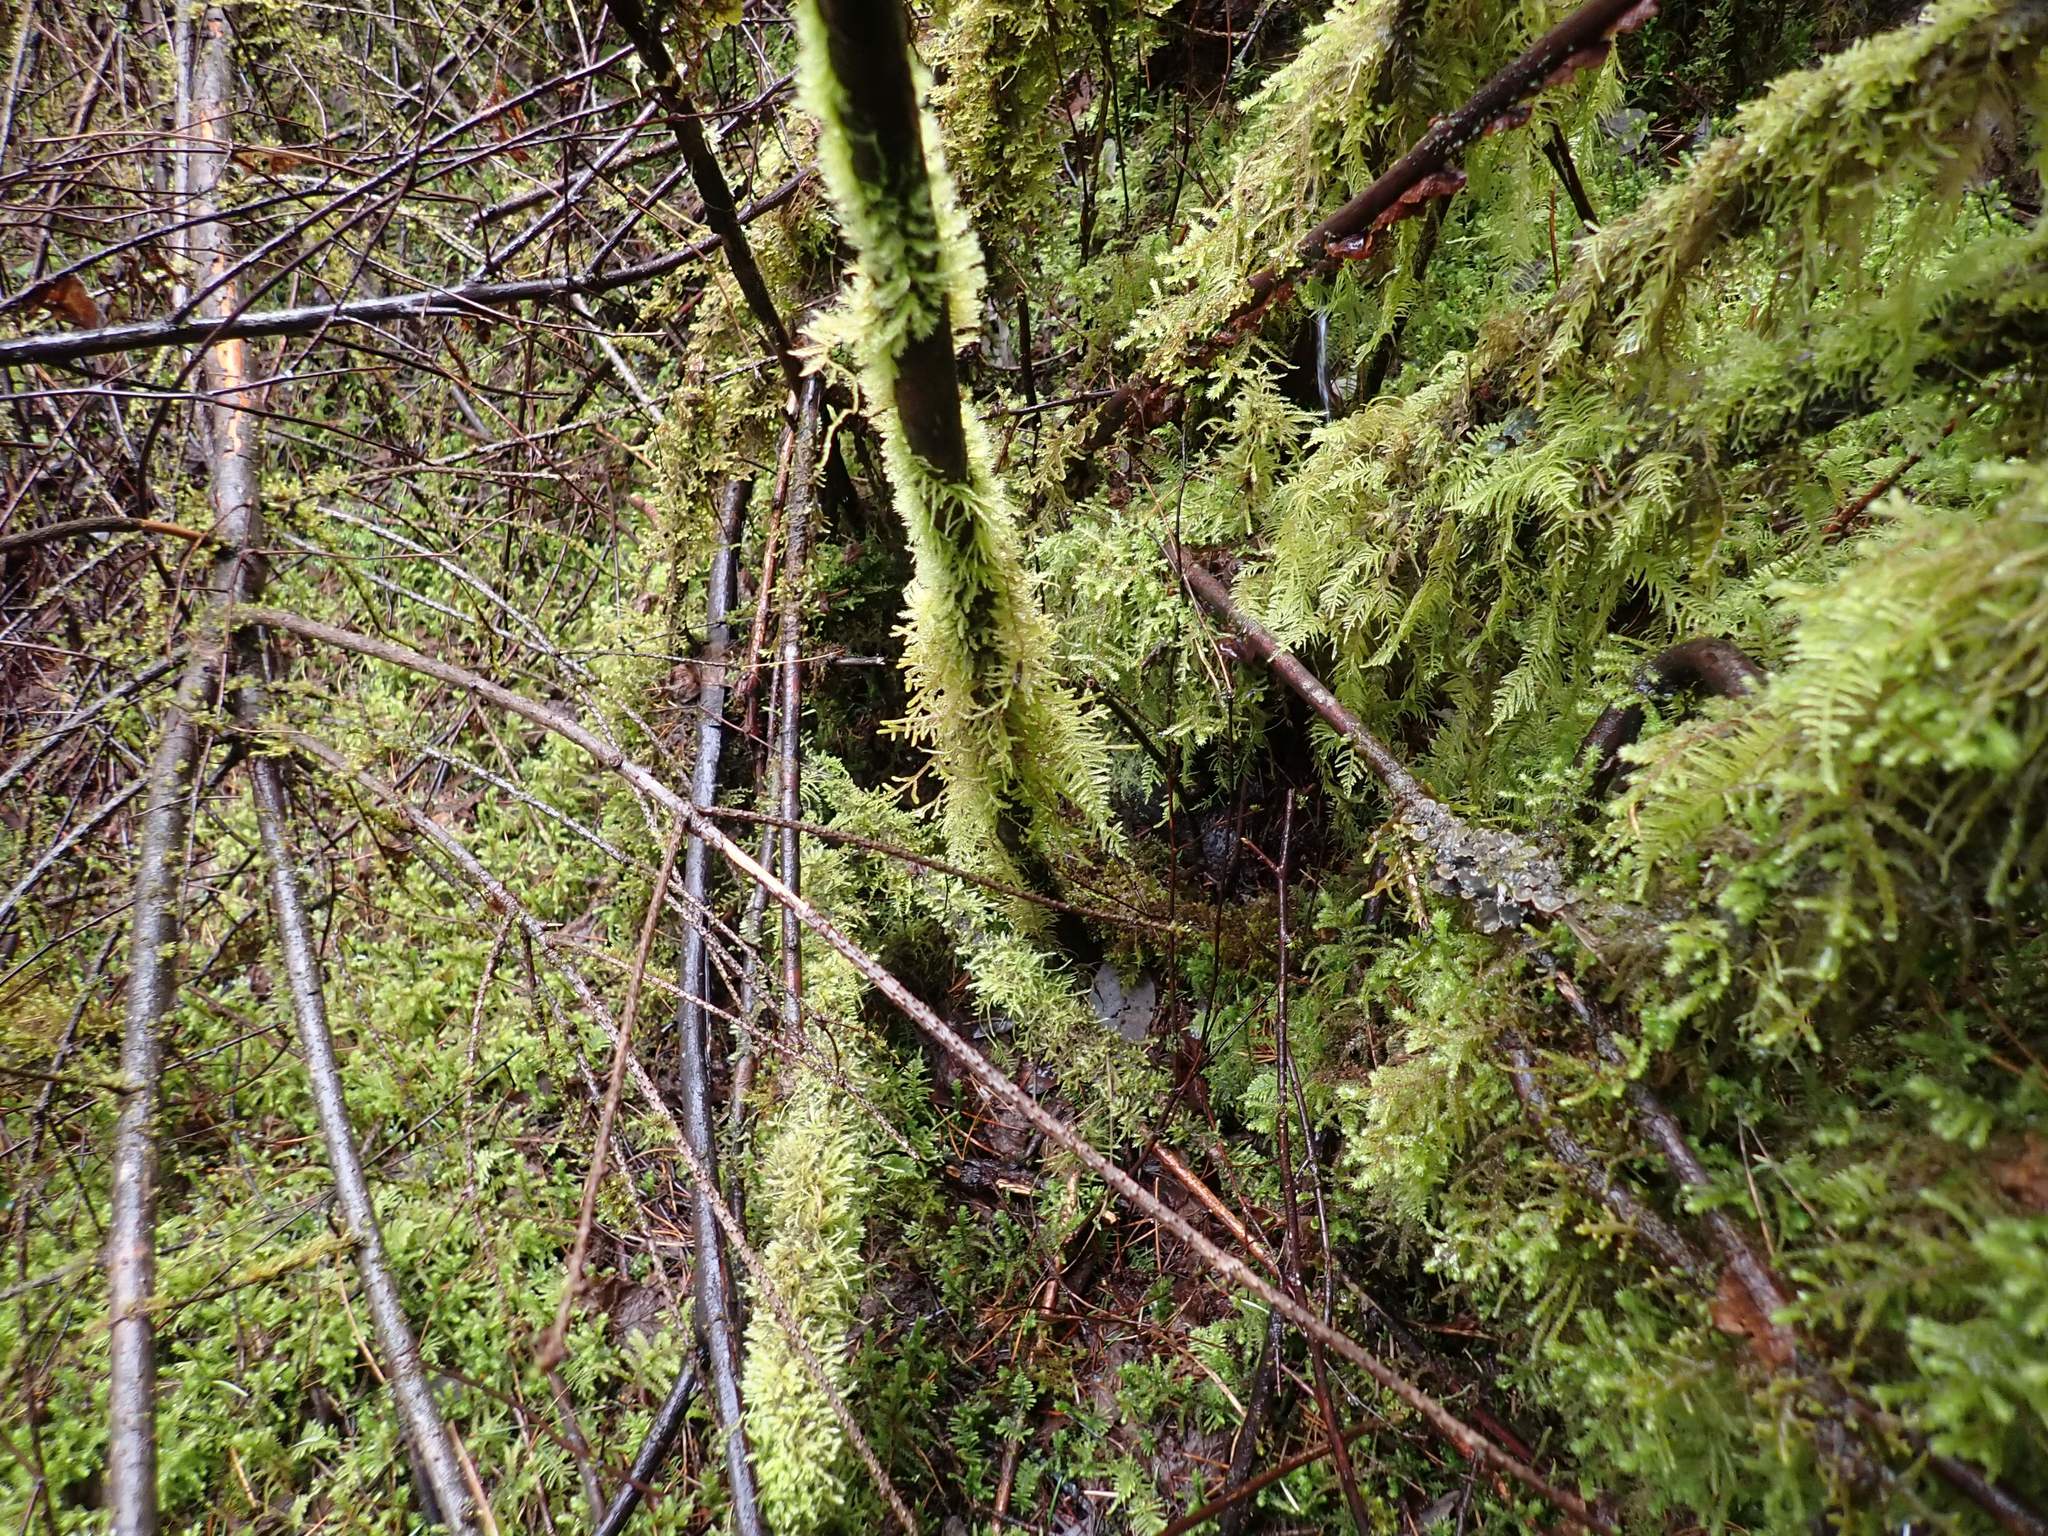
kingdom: Plantae
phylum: Bryophyta
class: Bryopsida
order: Hypnales
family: Brachytheciaceae
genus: Kindbergia
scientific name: Kindbergia oregana
